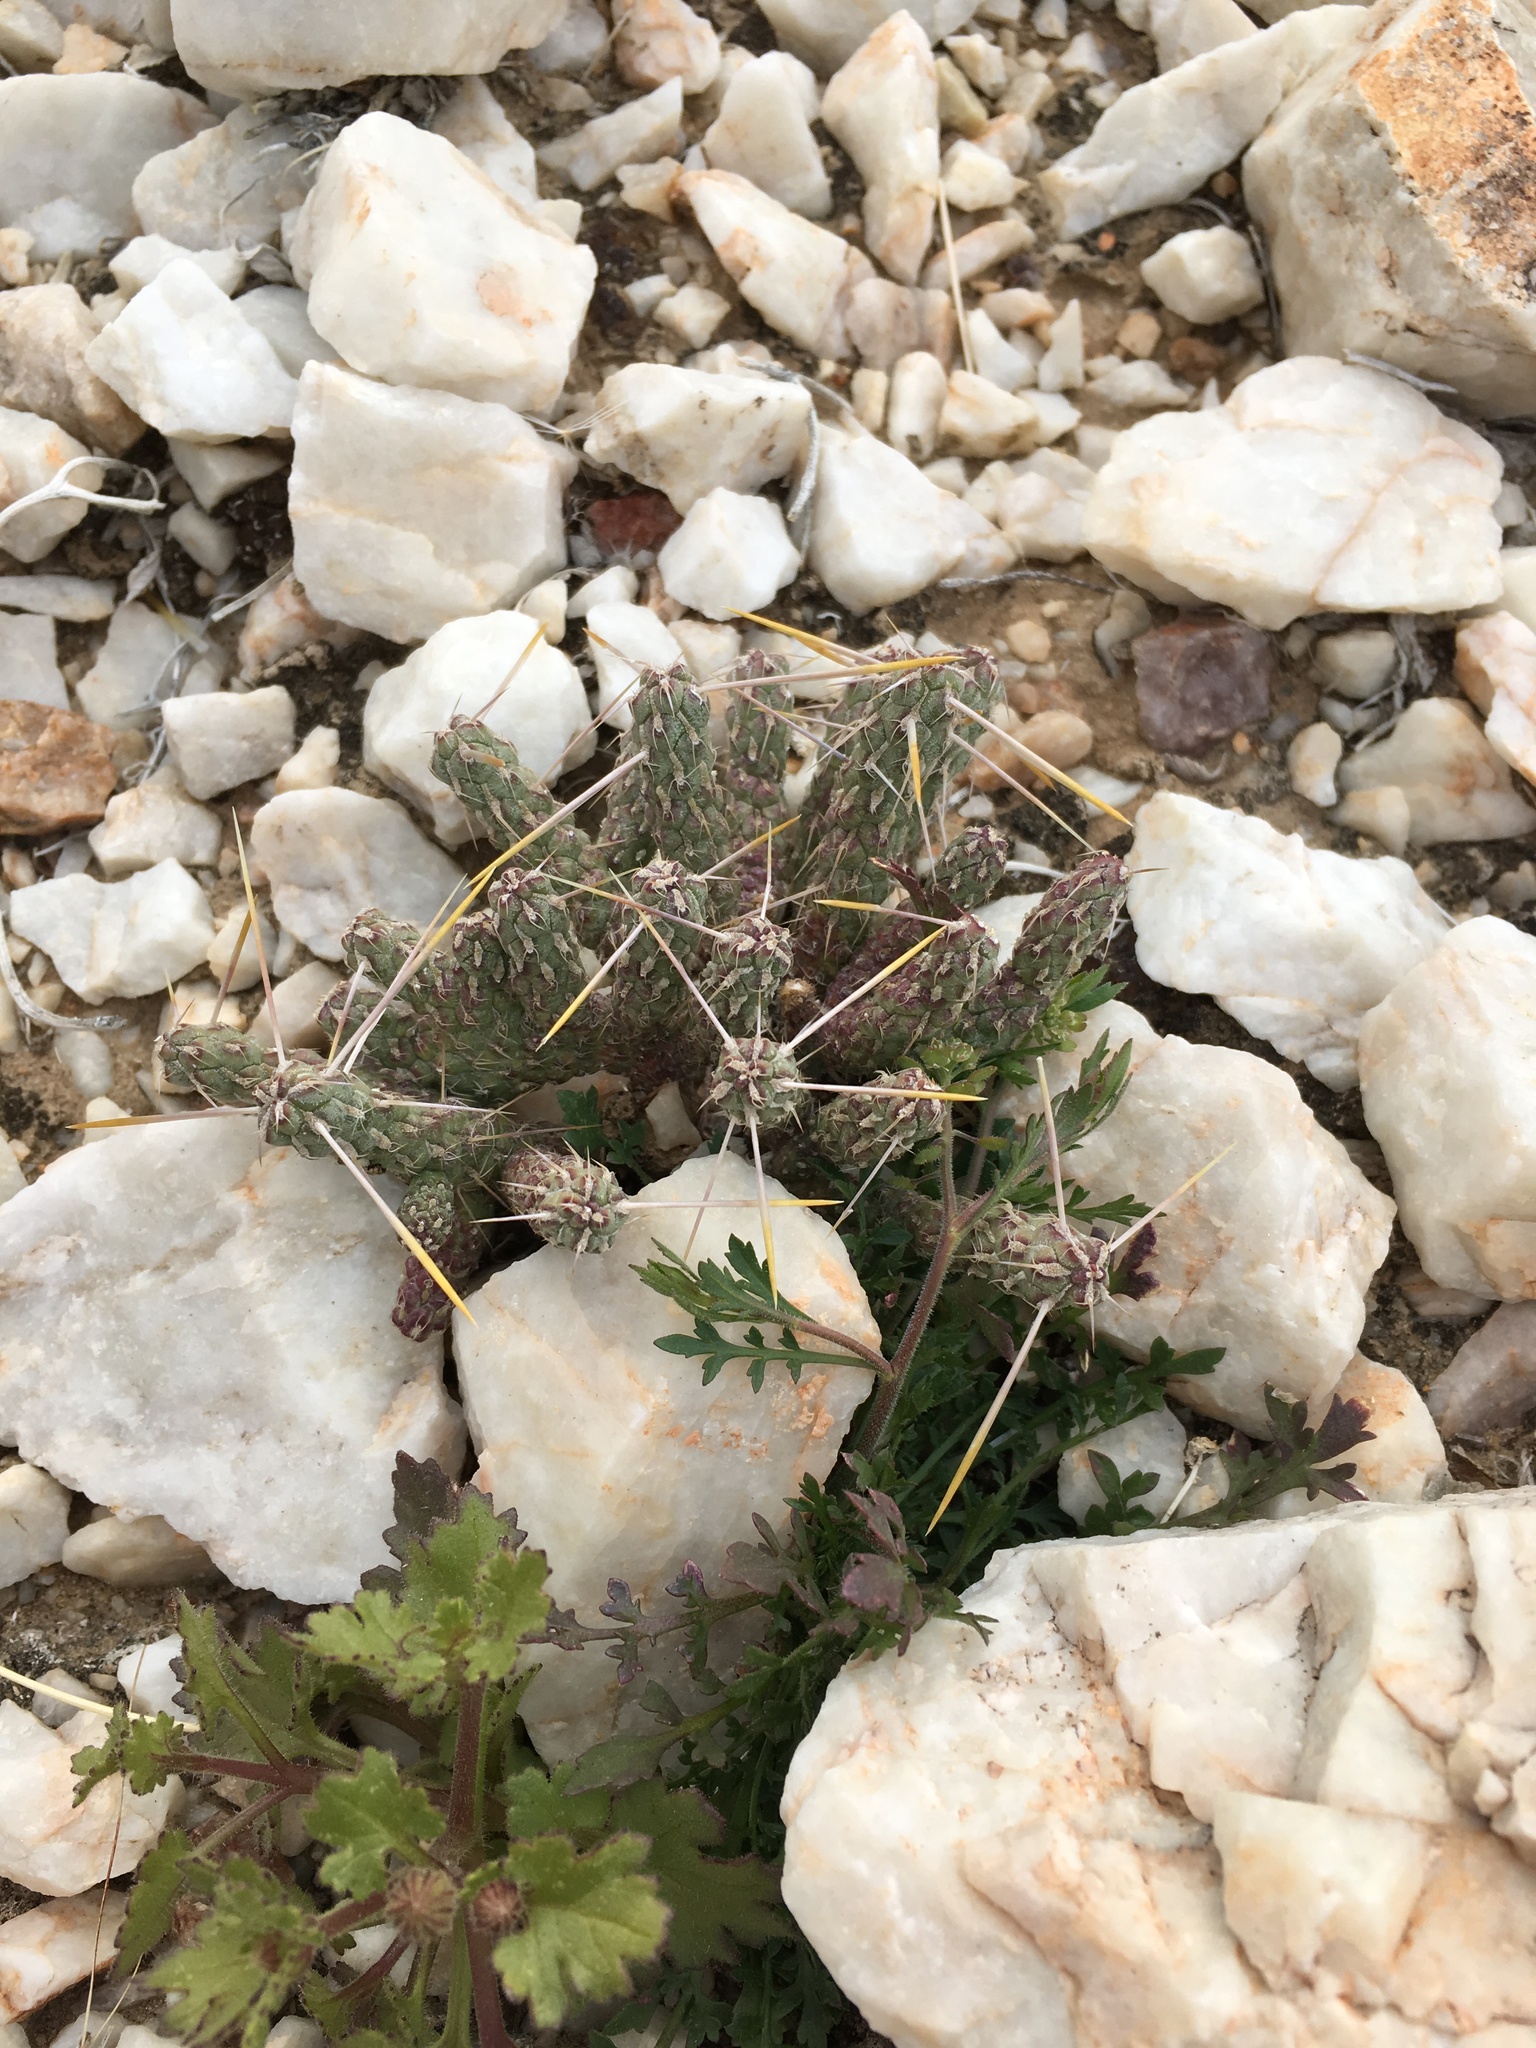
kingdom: Plantae
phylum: Tracheophyta
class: Magnoliopsida
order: Caryophyllales
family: Cactaceae
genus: Cylindropuntia
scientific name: Cylindropuntia ramosissima
